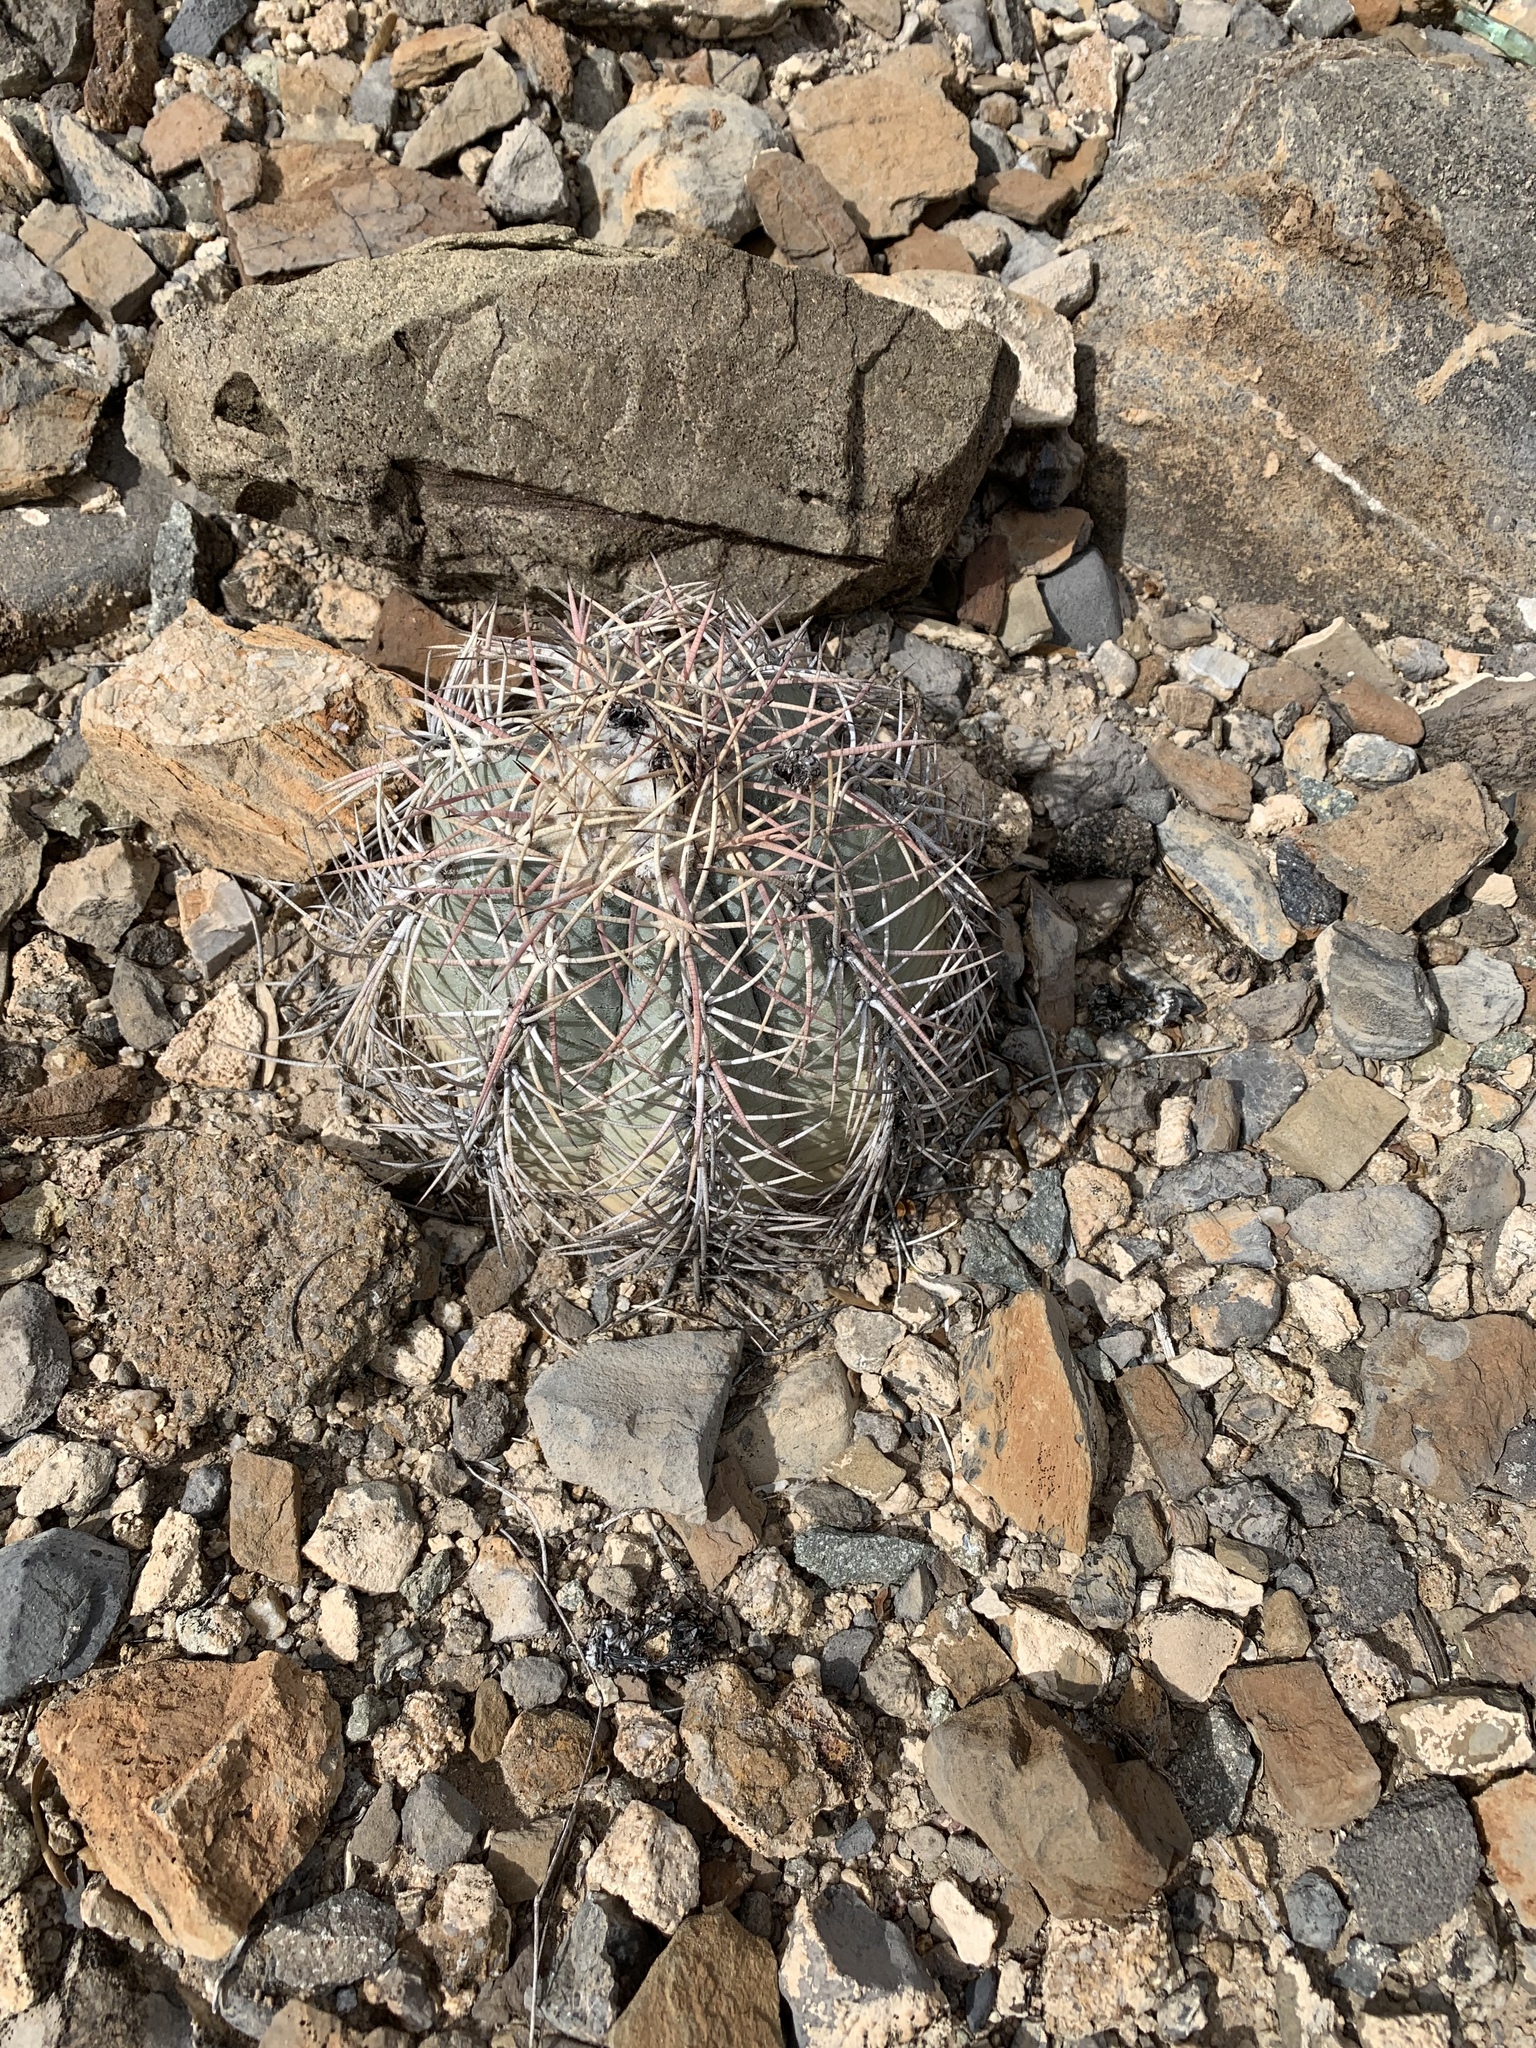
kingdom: Plantae
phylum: Tracheophyta
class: Magnoliopsida
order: Caryophyllales
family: Cactaceae
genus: Echinocactus
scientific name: Echinocactus horizonthalonius
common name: Devilshead
